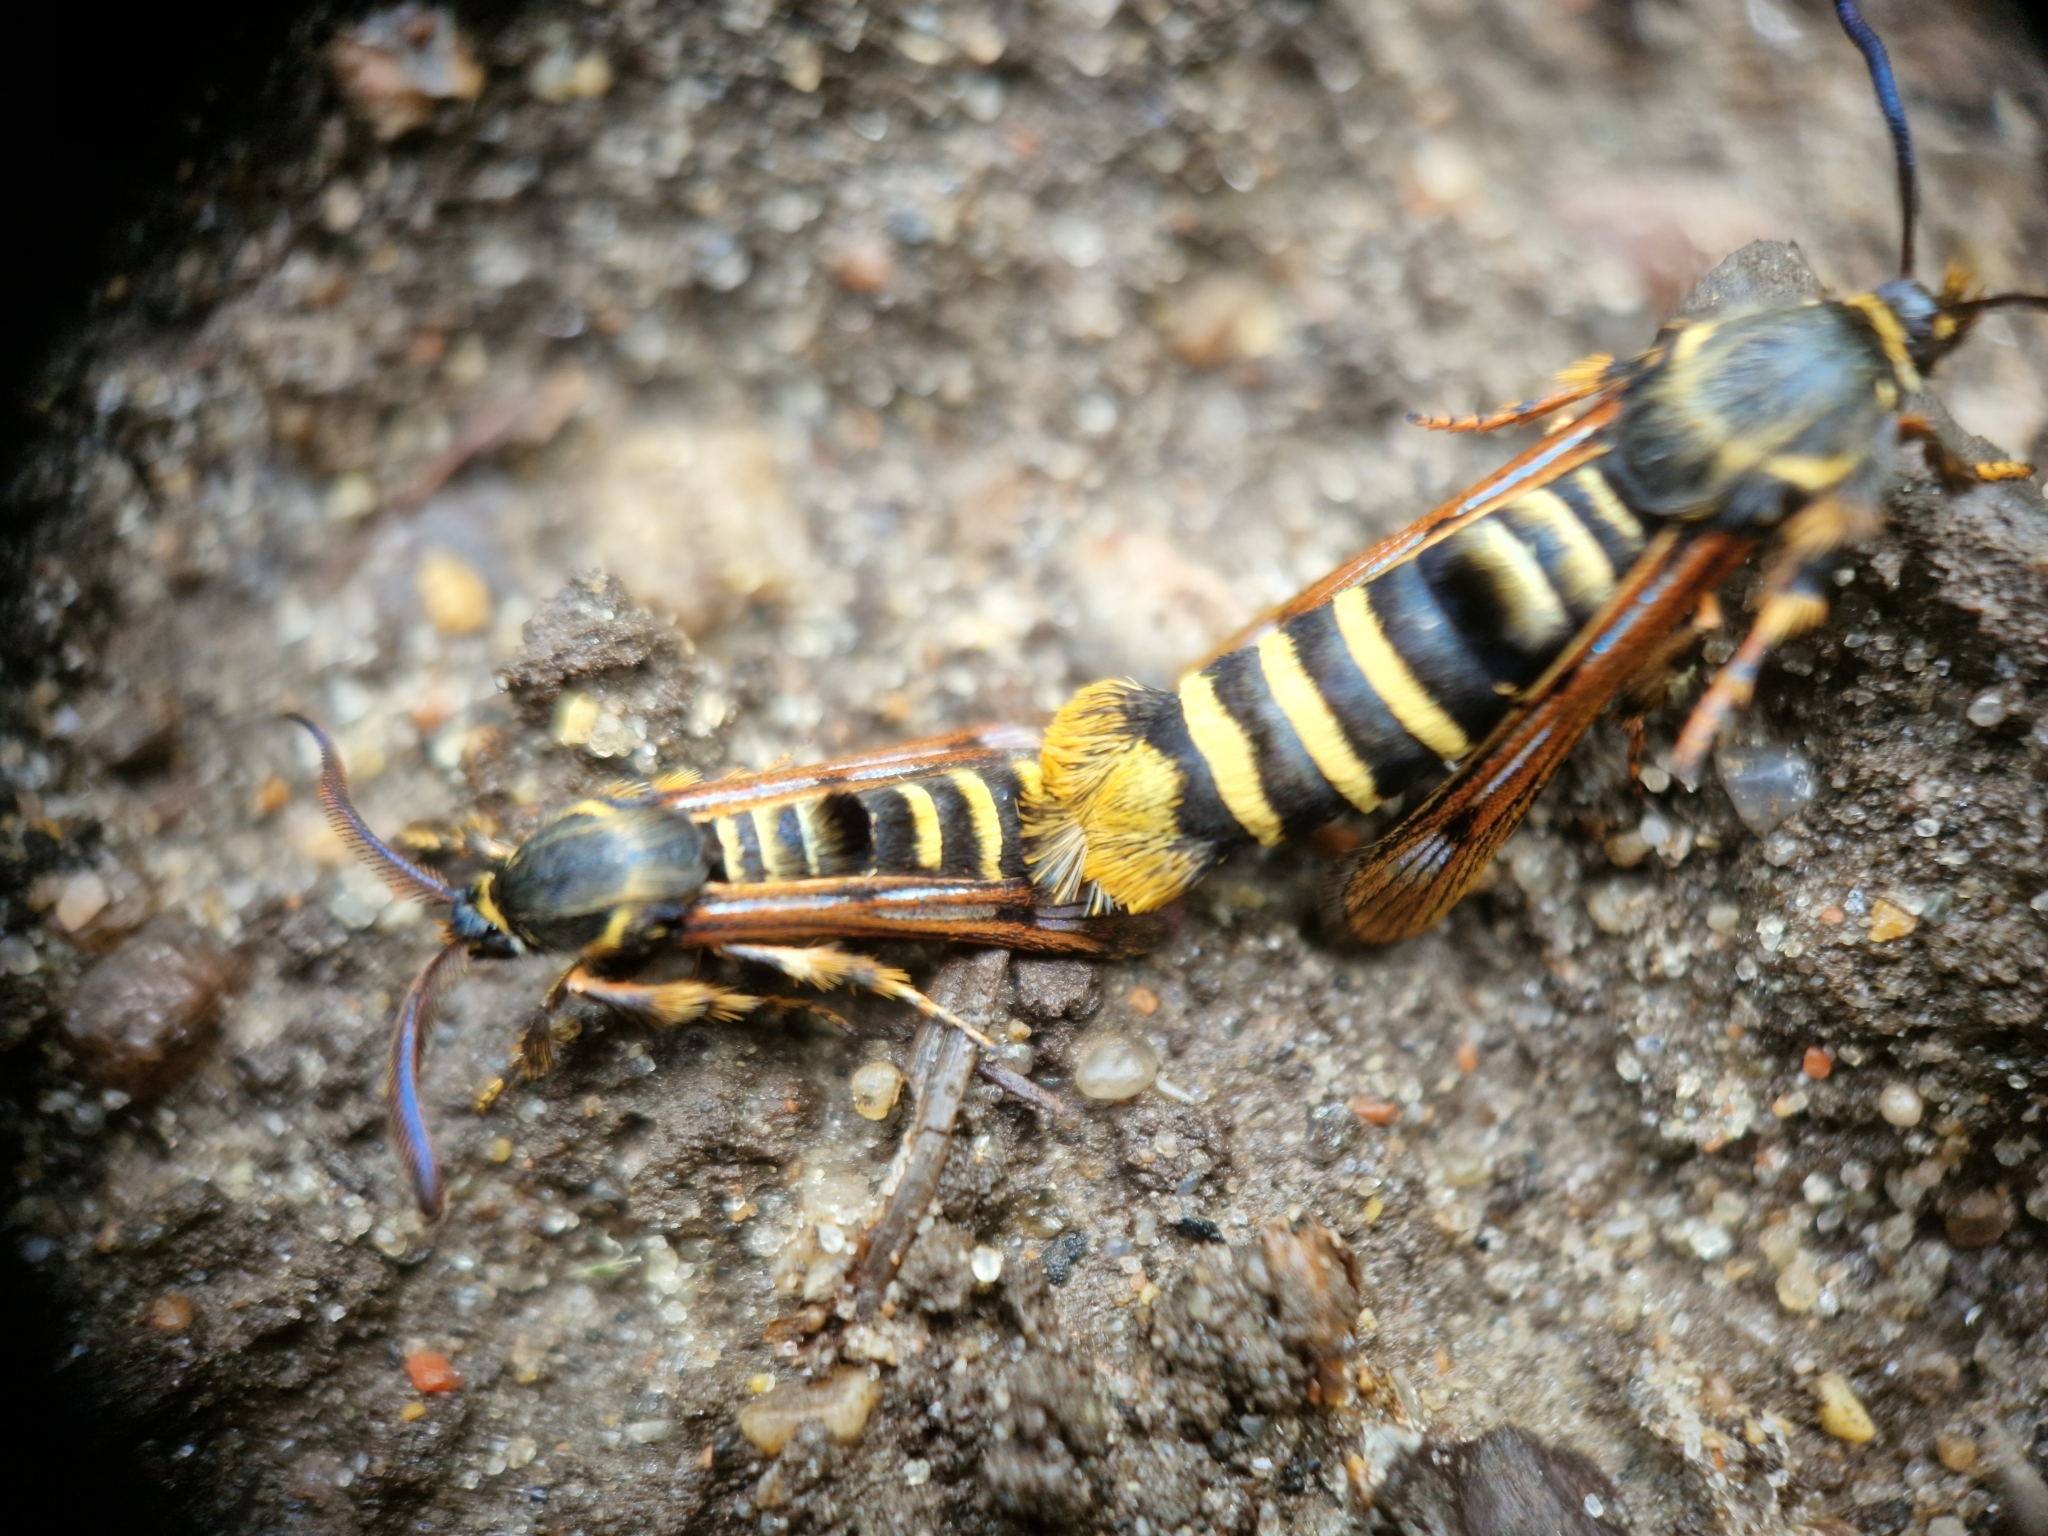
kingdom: Animalia
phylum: Arthropoda
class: Insecta
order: Lepidoptera
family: Sesiidae
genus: Pennisetia
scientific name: Pennisetia hylaeiformis
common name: Raspberry clearwing
